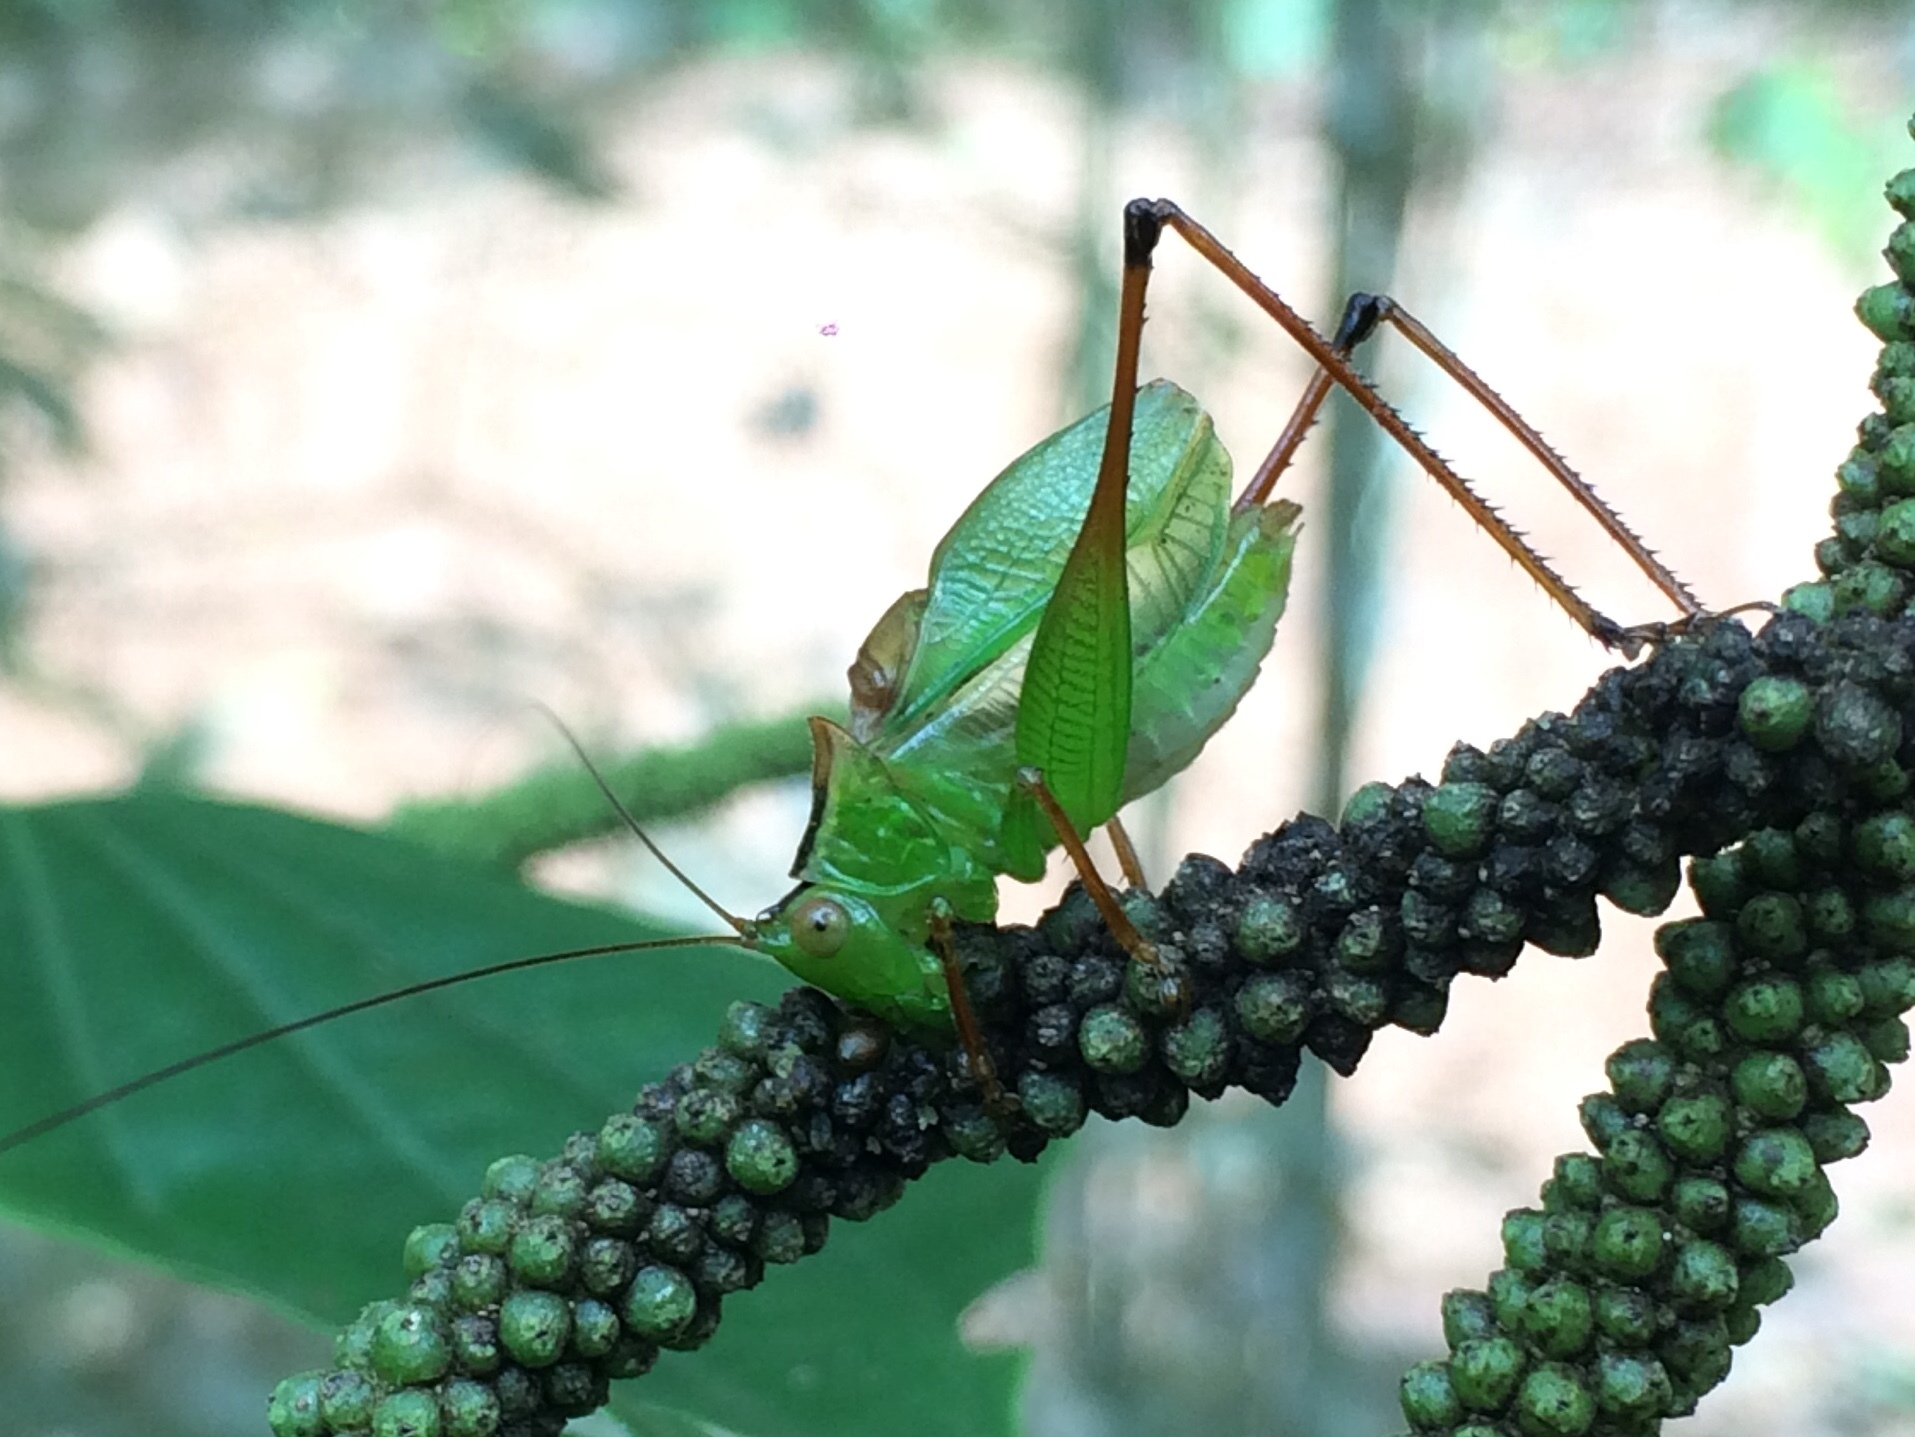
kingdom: Animalia
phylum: Arthropoda
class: Insecta
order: Orthoptera
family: Tettigoniidae
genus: Xiphelimum
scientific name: Xiphelimum amplipennis
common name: Clear-wing meadow katydid
